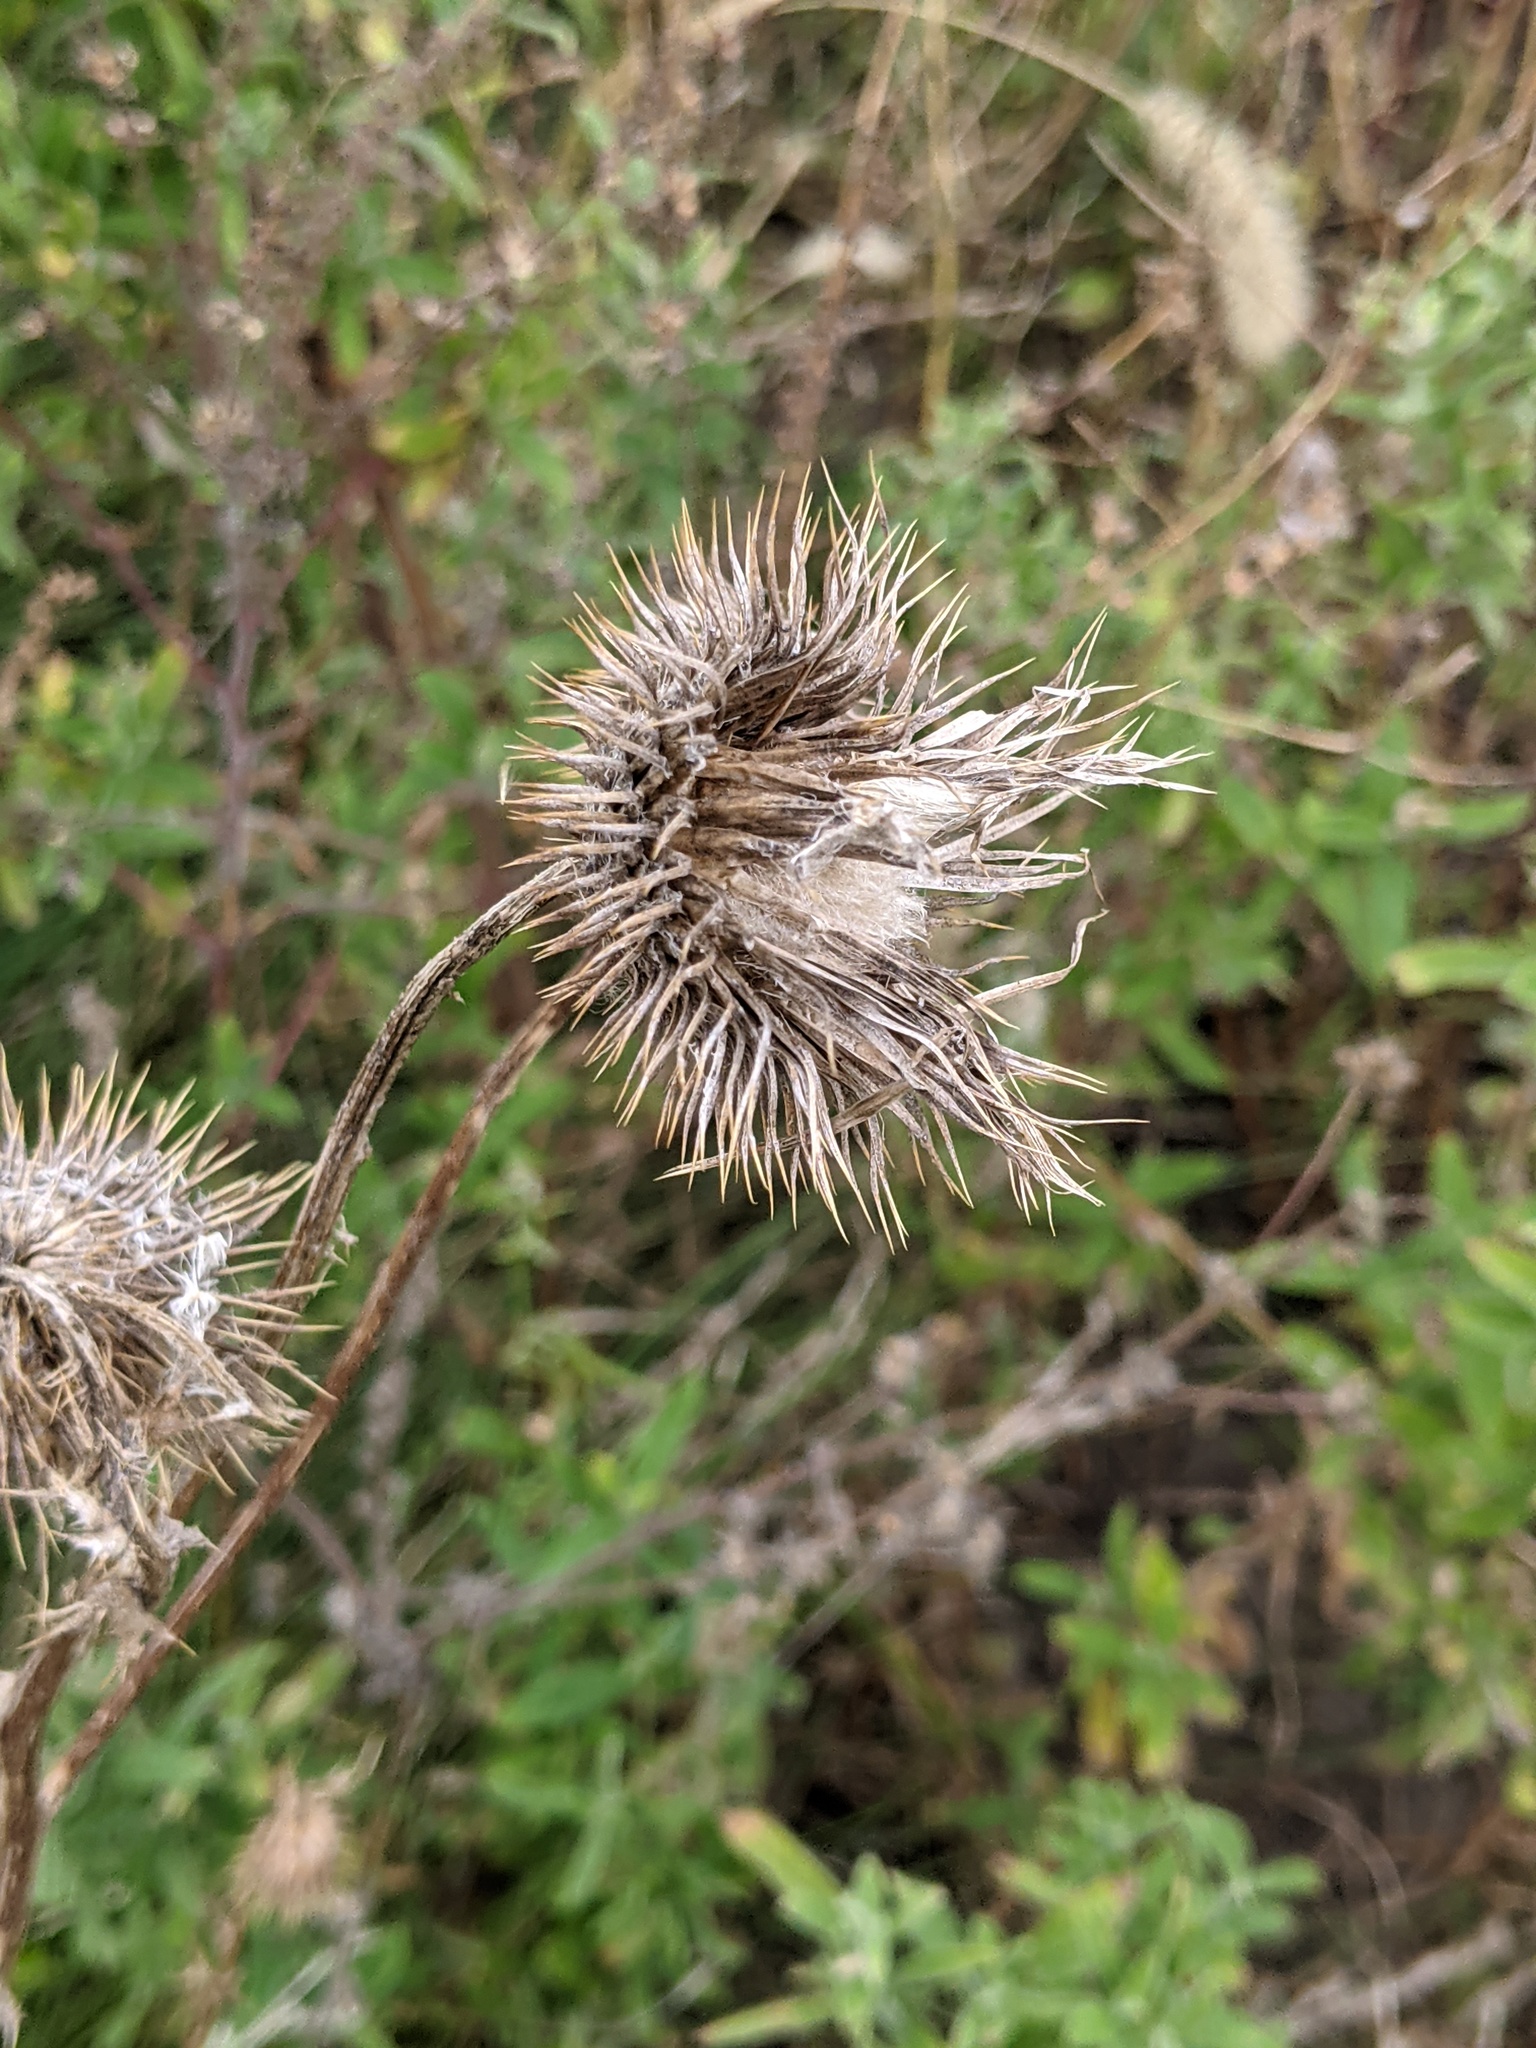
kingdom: Plantae
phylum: Tracheophyta
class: Magnoliopsida
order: Asterales
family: Asteraceae
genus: Cirsium
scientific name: Cirsium vulgare
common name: Bull thistle
